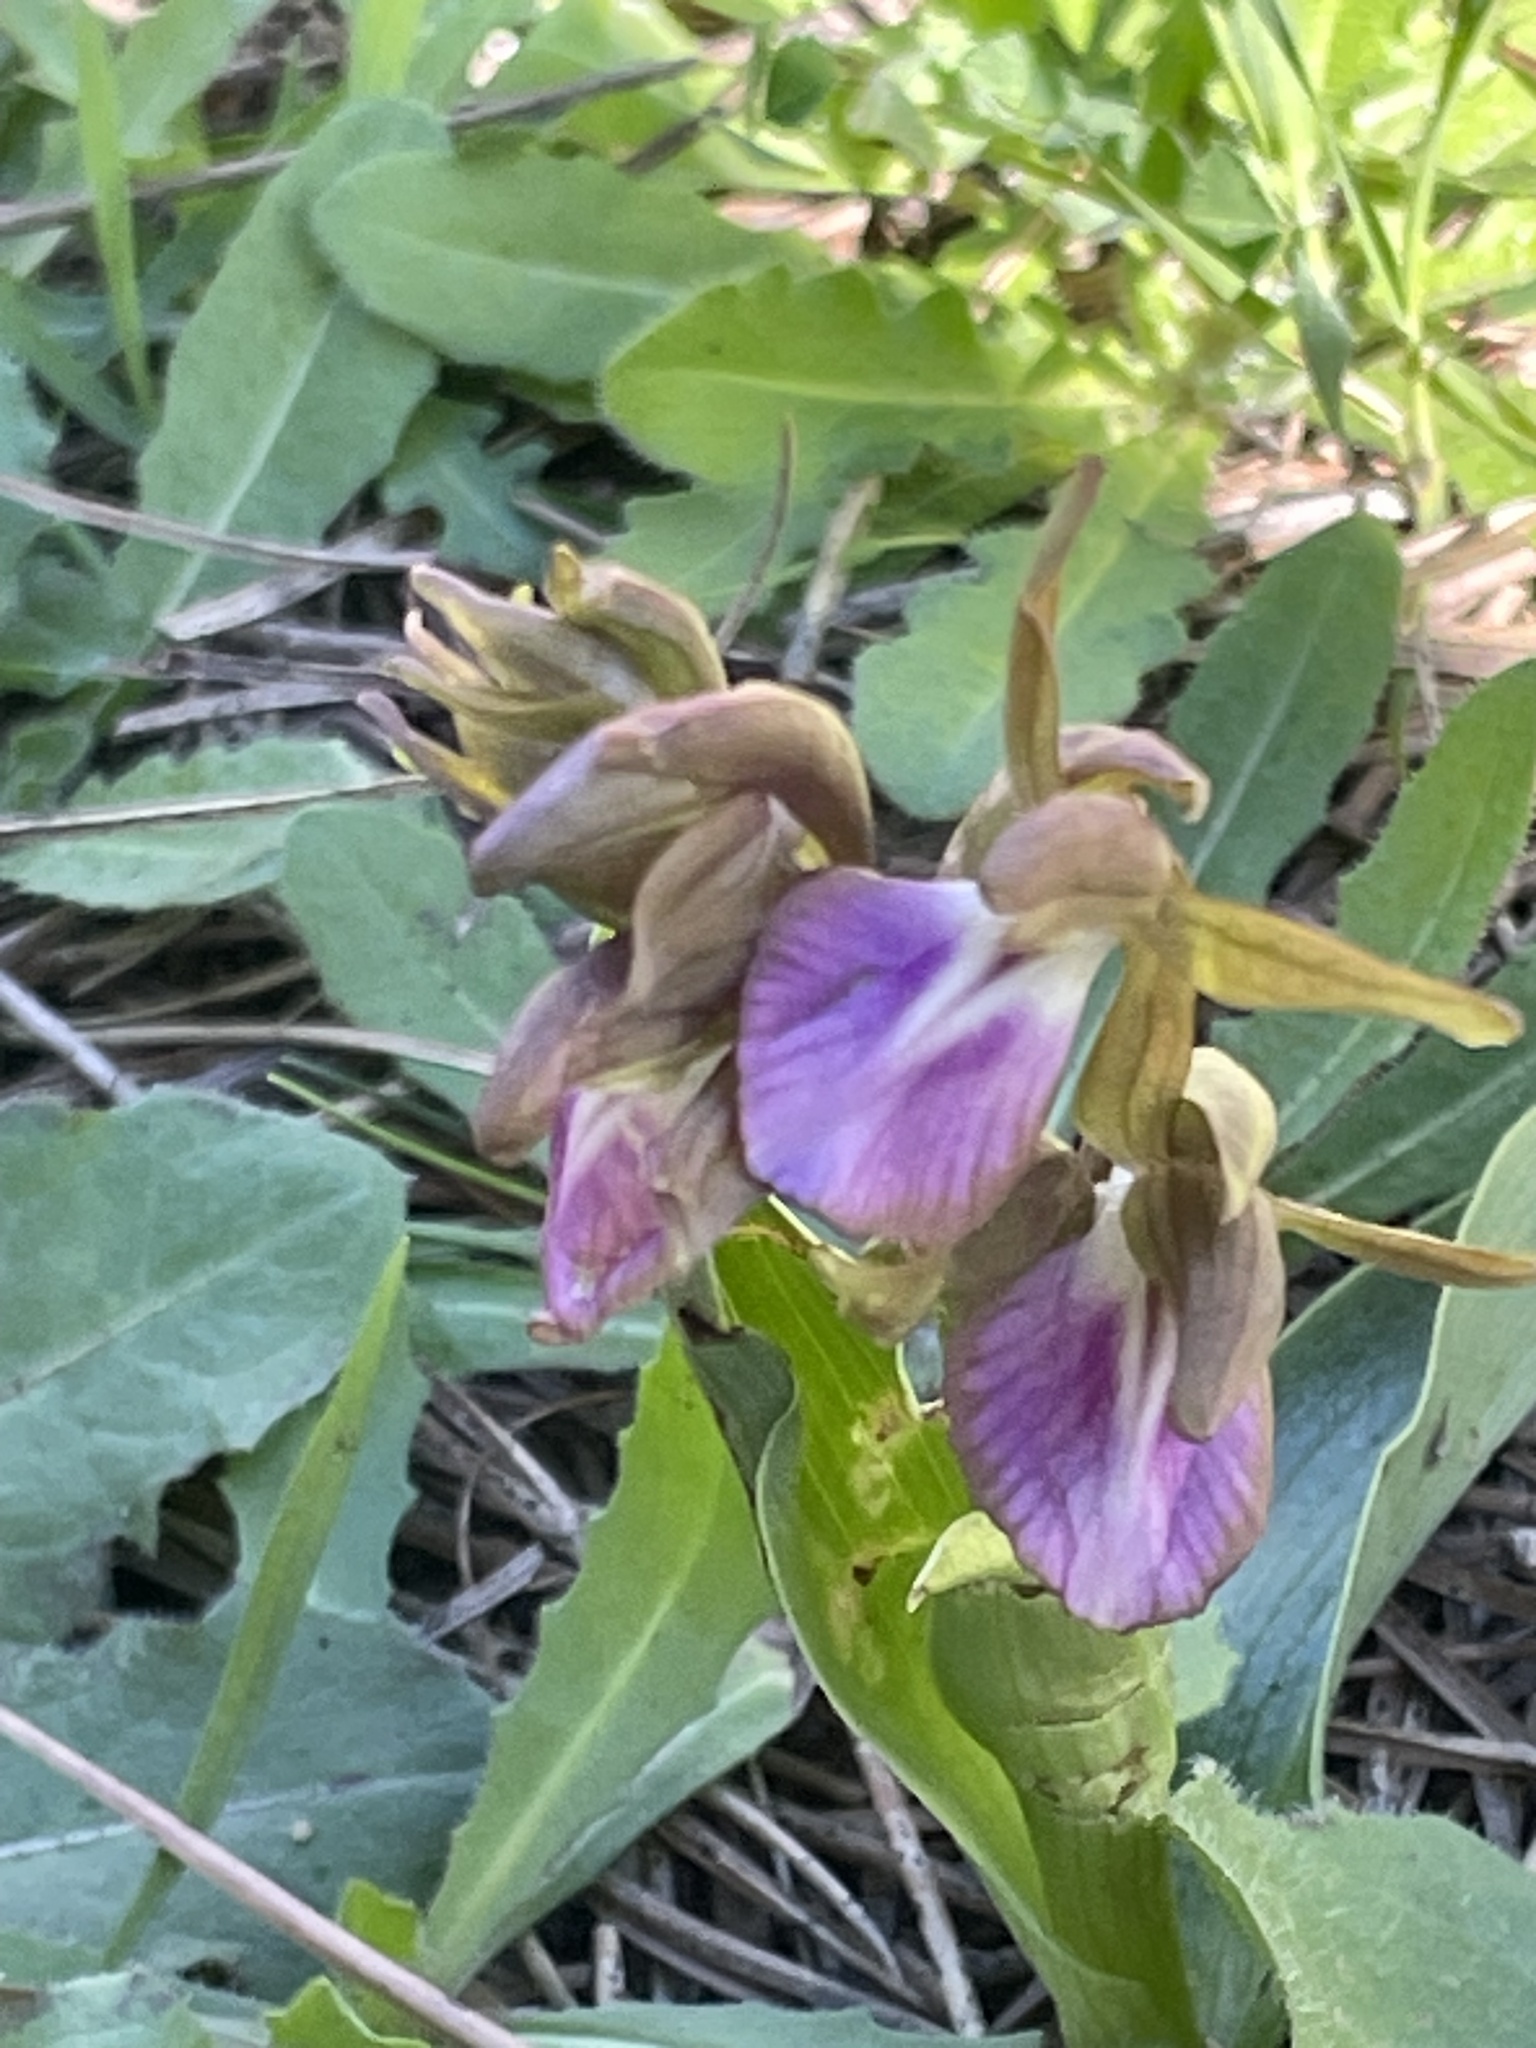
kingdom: Plantae
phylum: Tracheophyta
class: Liliopsida
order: Asparagales
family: Orchidaceae
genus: Anacamptis
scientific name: Anacamptis collina
